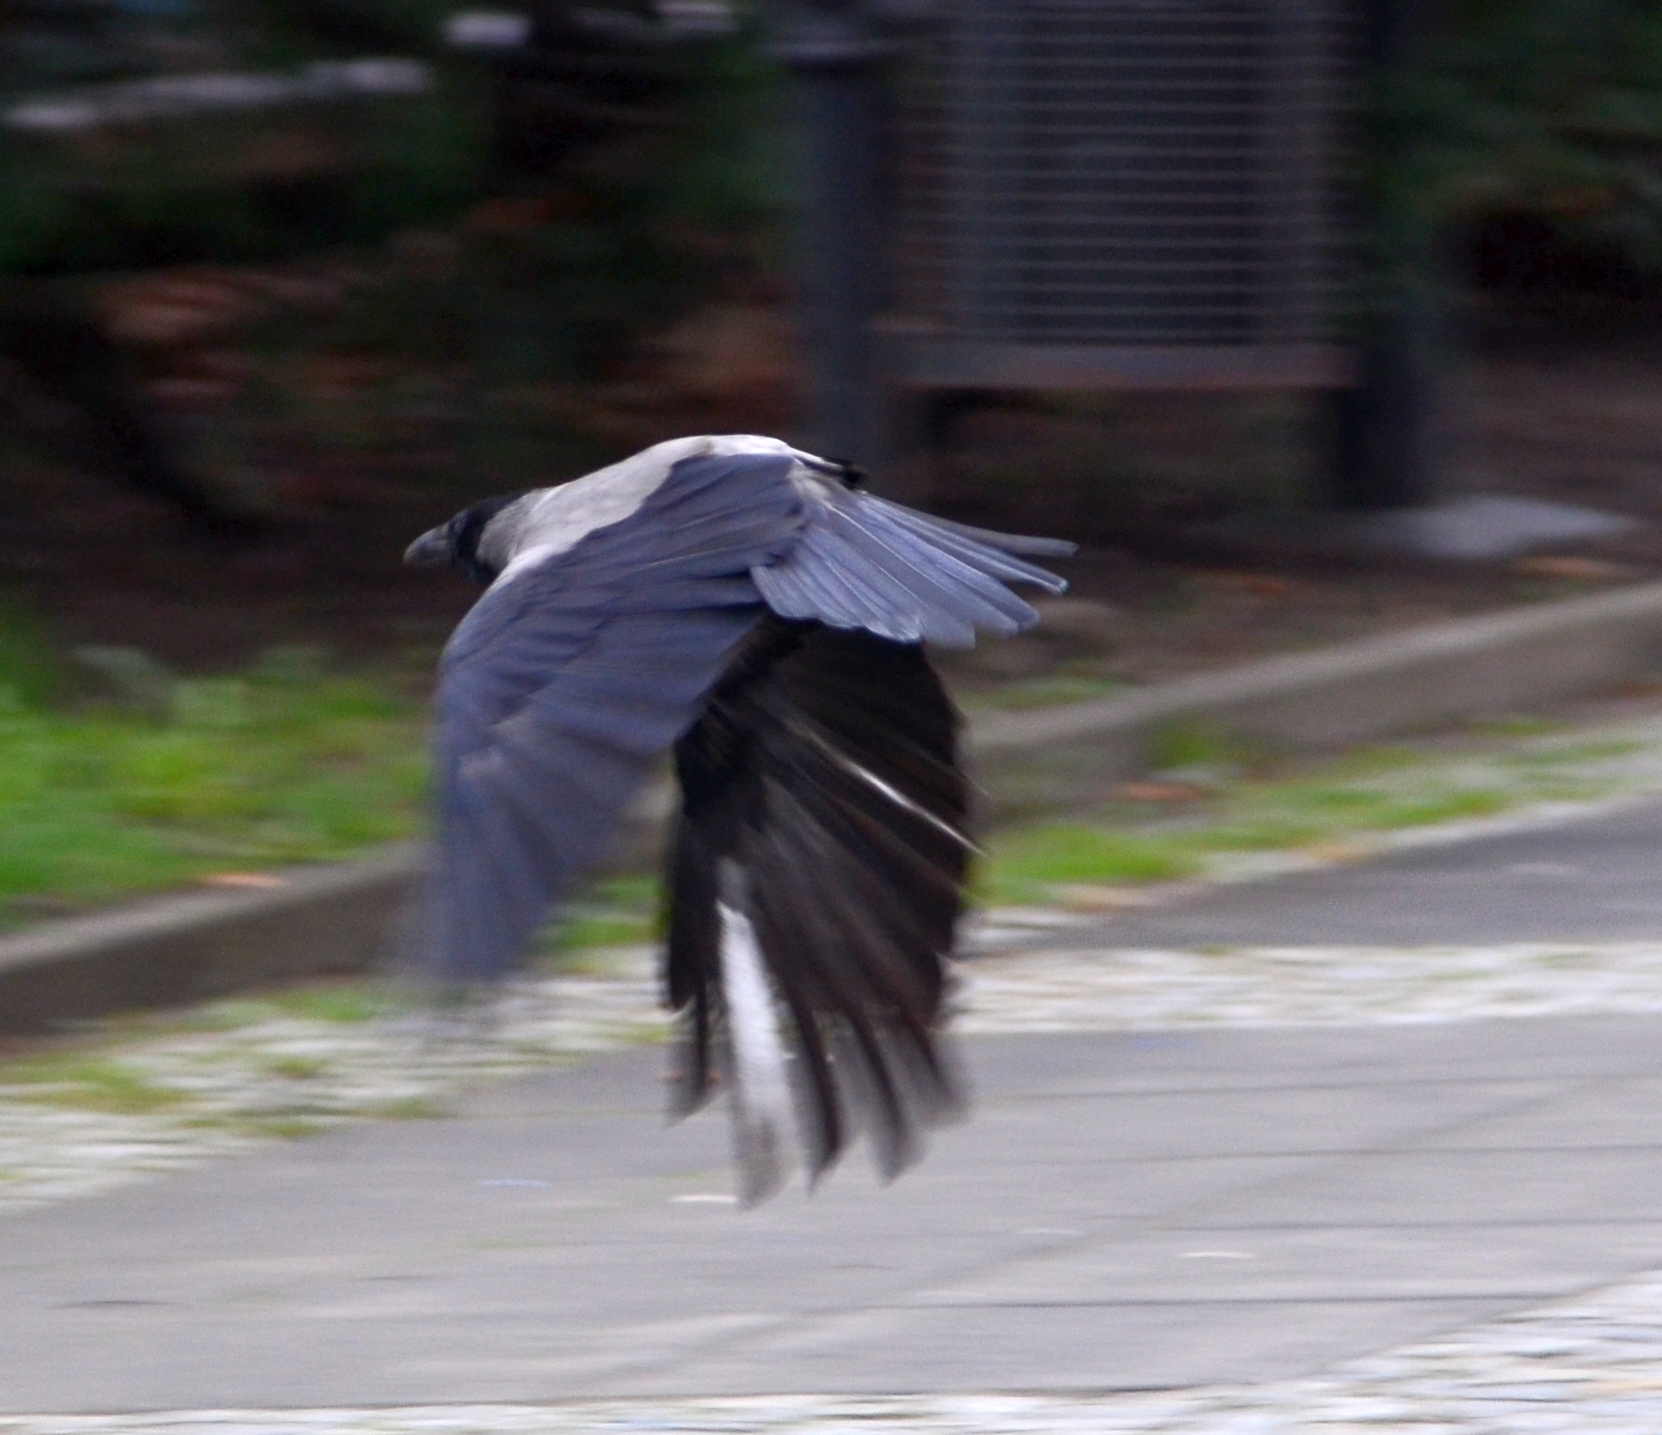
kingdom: Animalia
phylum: Chordata
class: Aves
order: Passeriformes
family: Corvidae
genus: Corvus
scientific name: Corvus cornix
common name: Hooded crow
